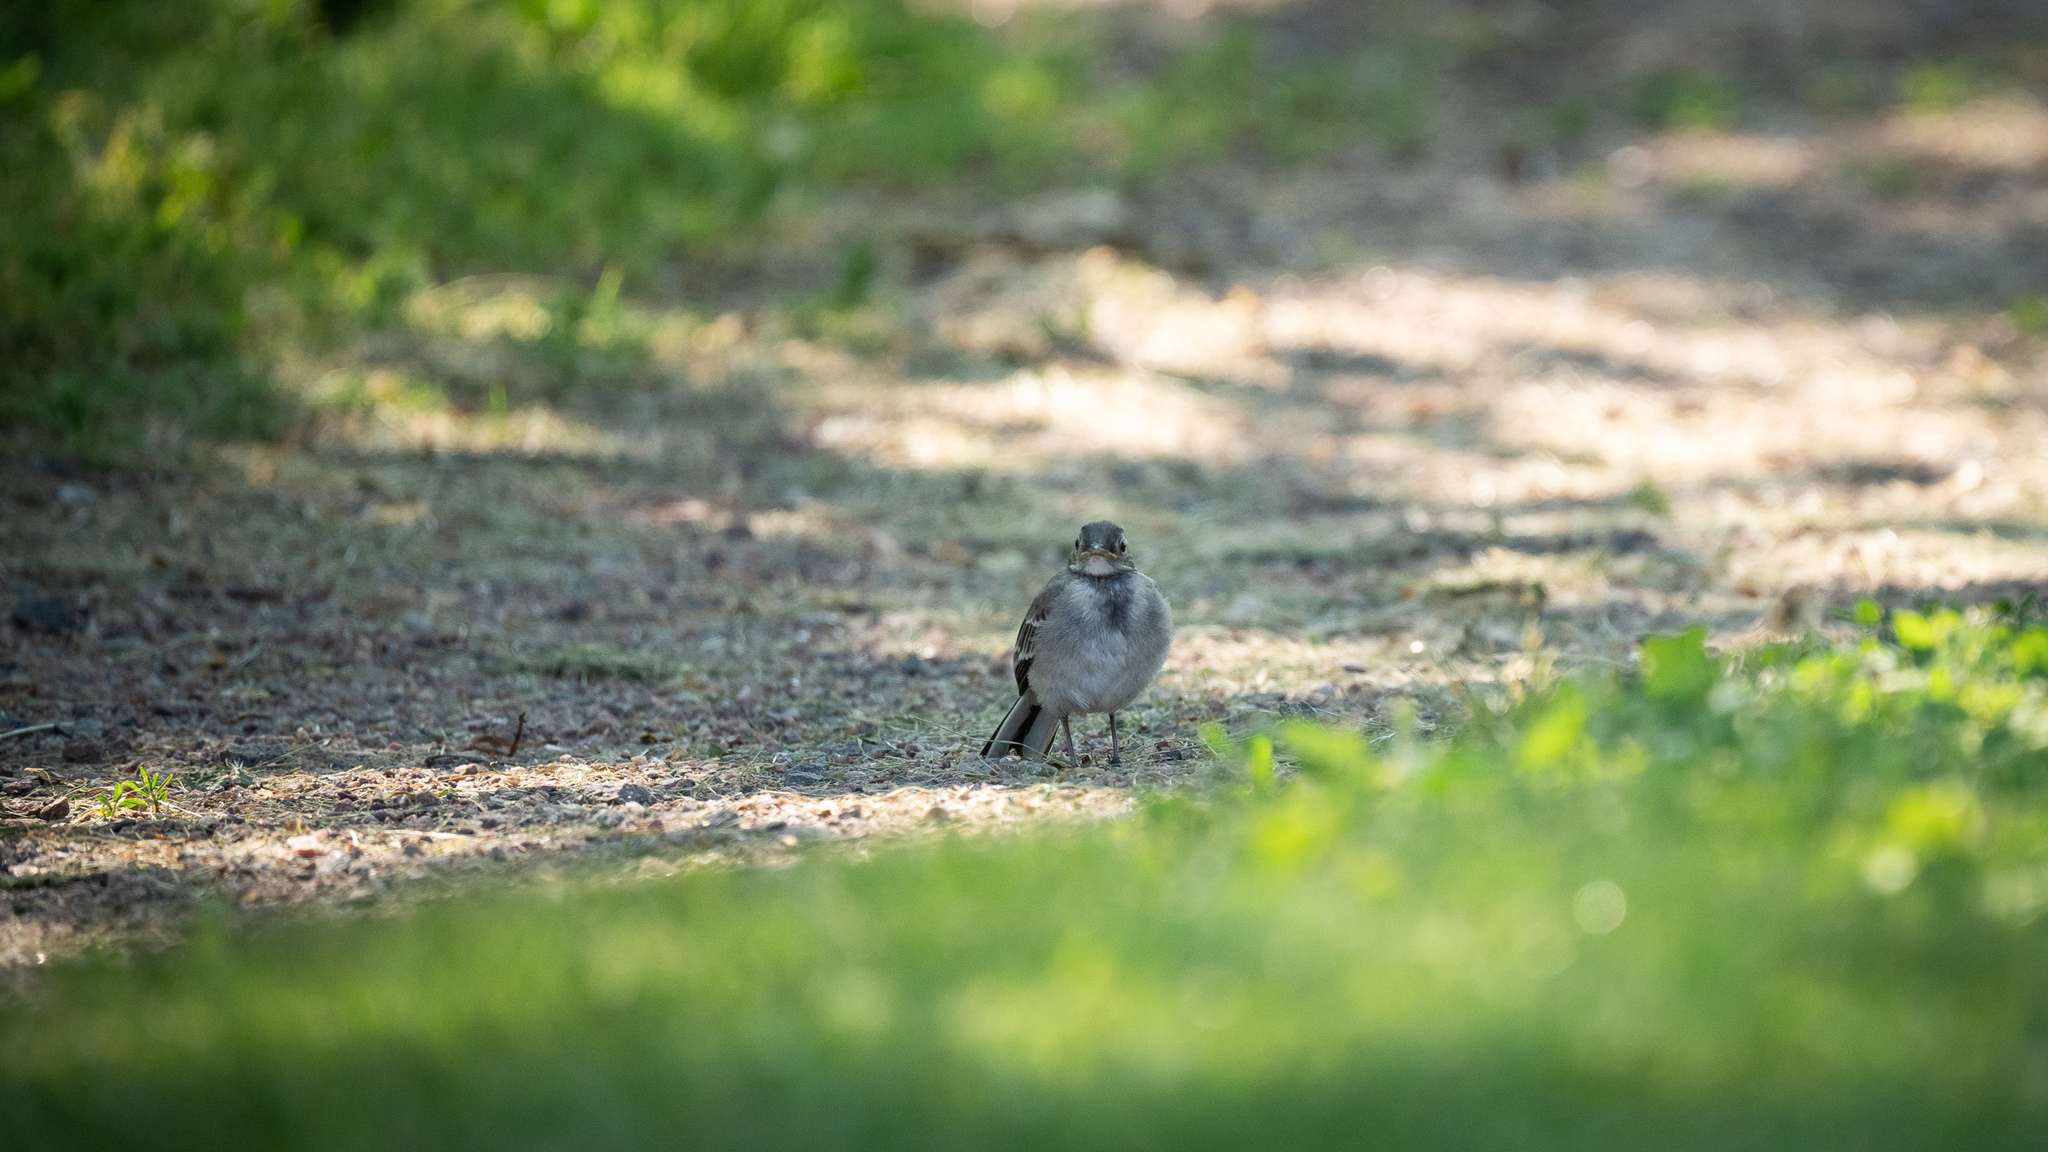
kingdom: Animalia
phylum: Chordata
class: Aves
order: Passeriformes
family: Motacillidae
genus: Motacilla
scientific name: Motacilla alba
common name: White wagtail
